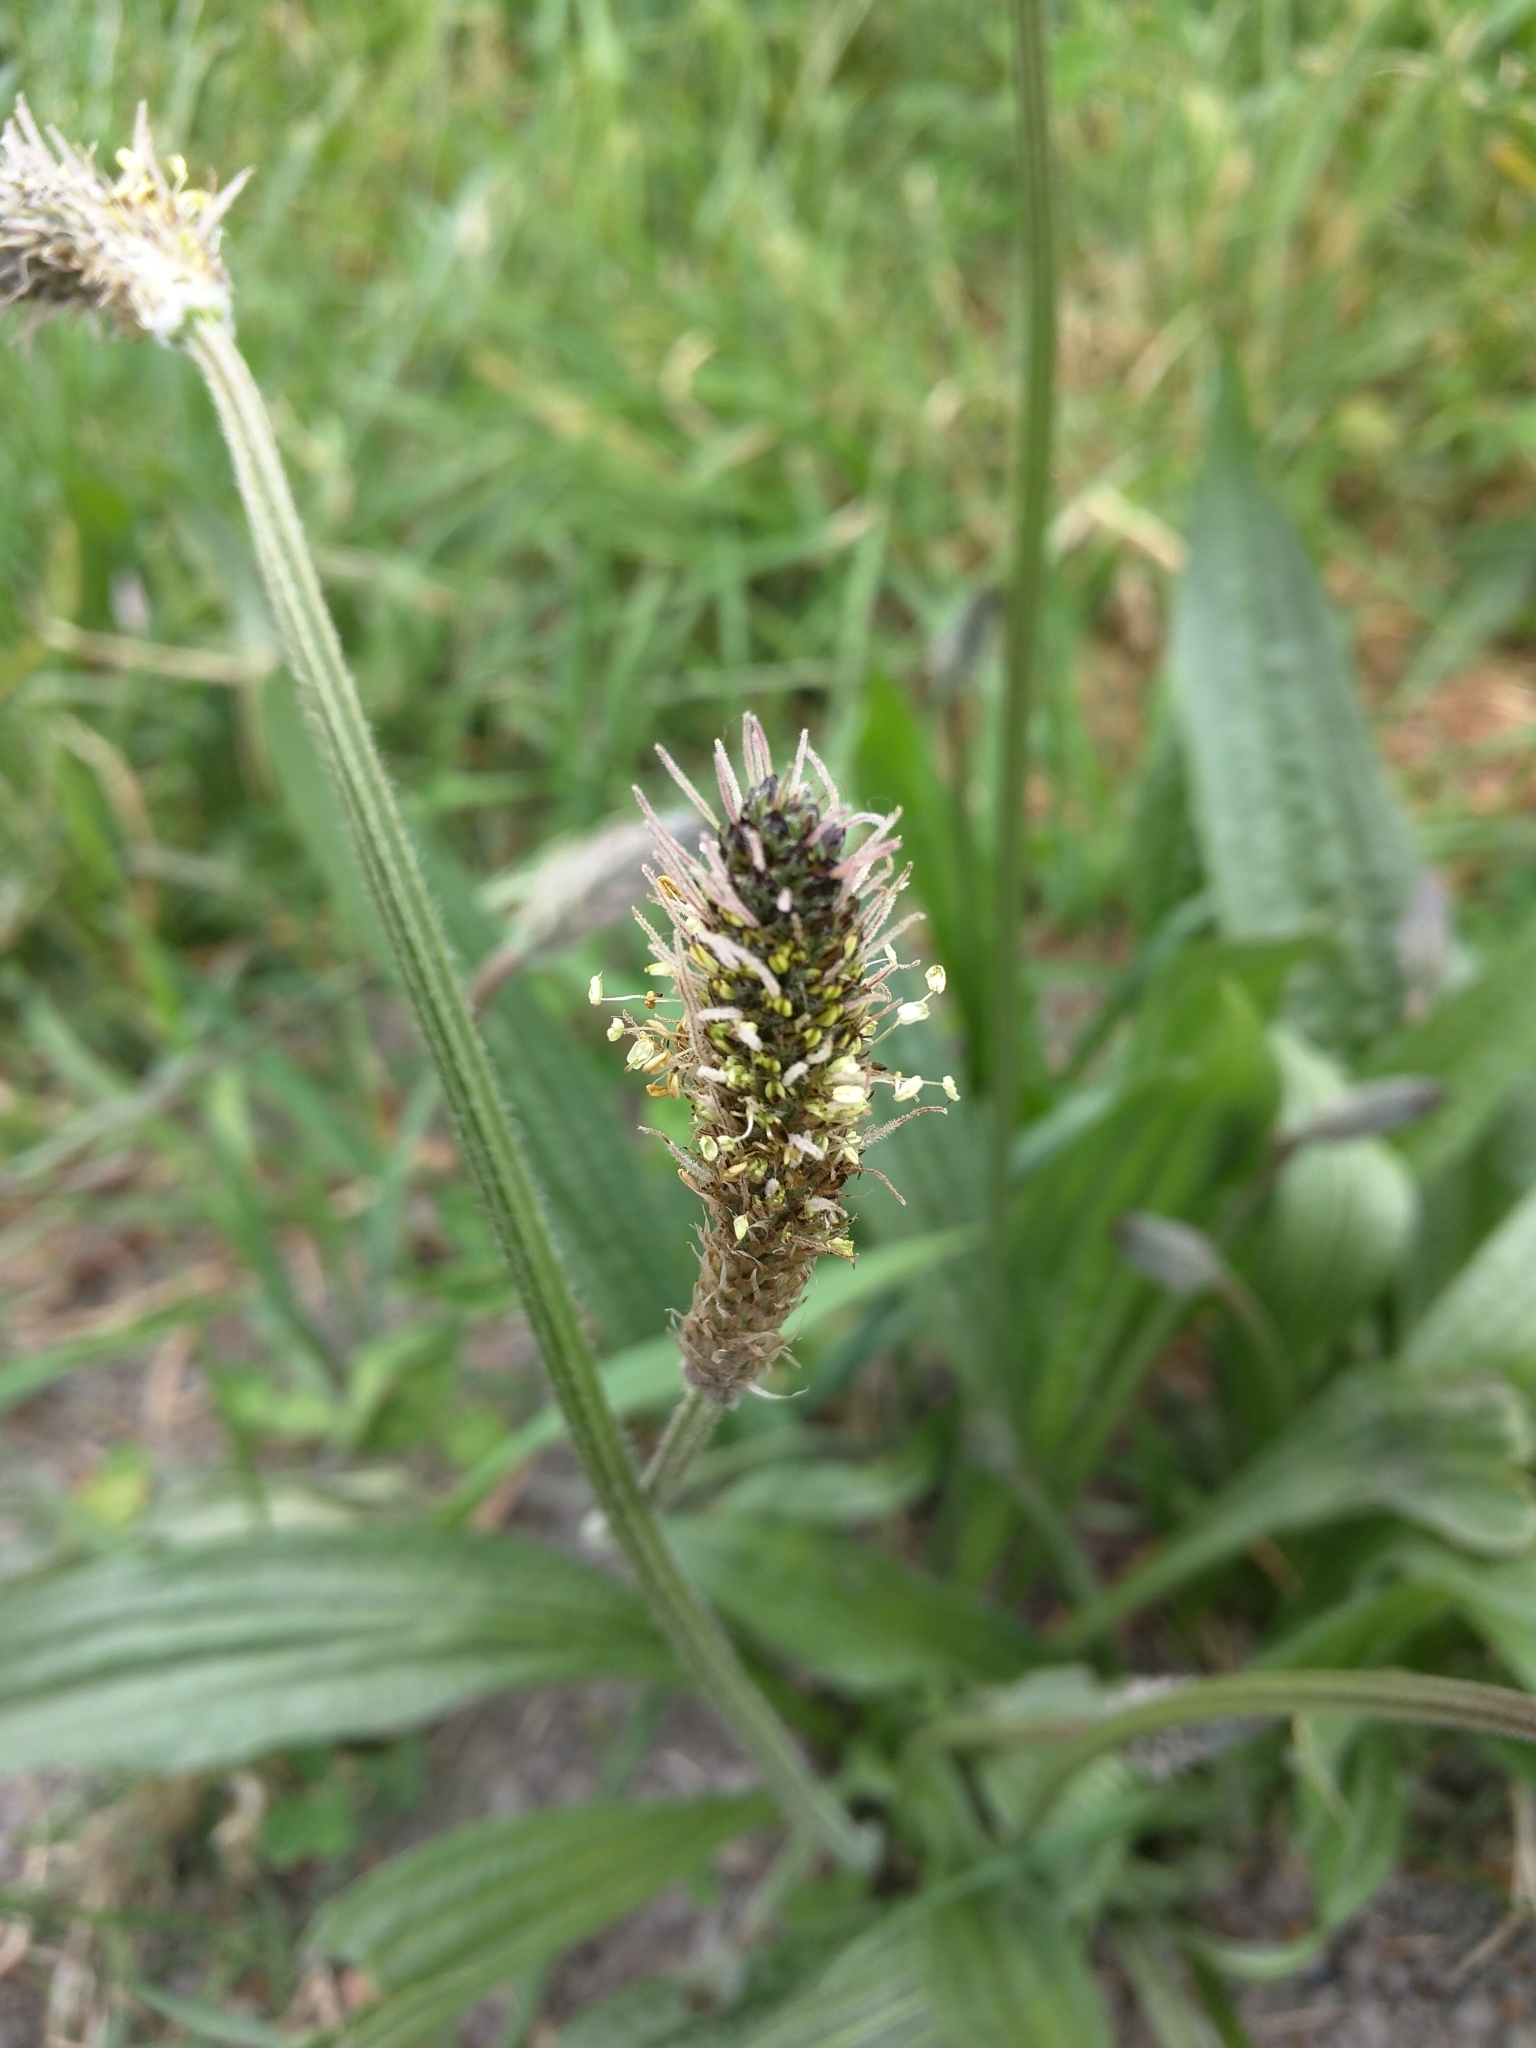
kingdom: Plantae
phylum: Tracheophyta
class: Magnoliopsida
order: Lamiales
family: Plantaginaceae
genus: Plantago
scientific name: Plantago lanceolata
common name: Ribwort plantain
